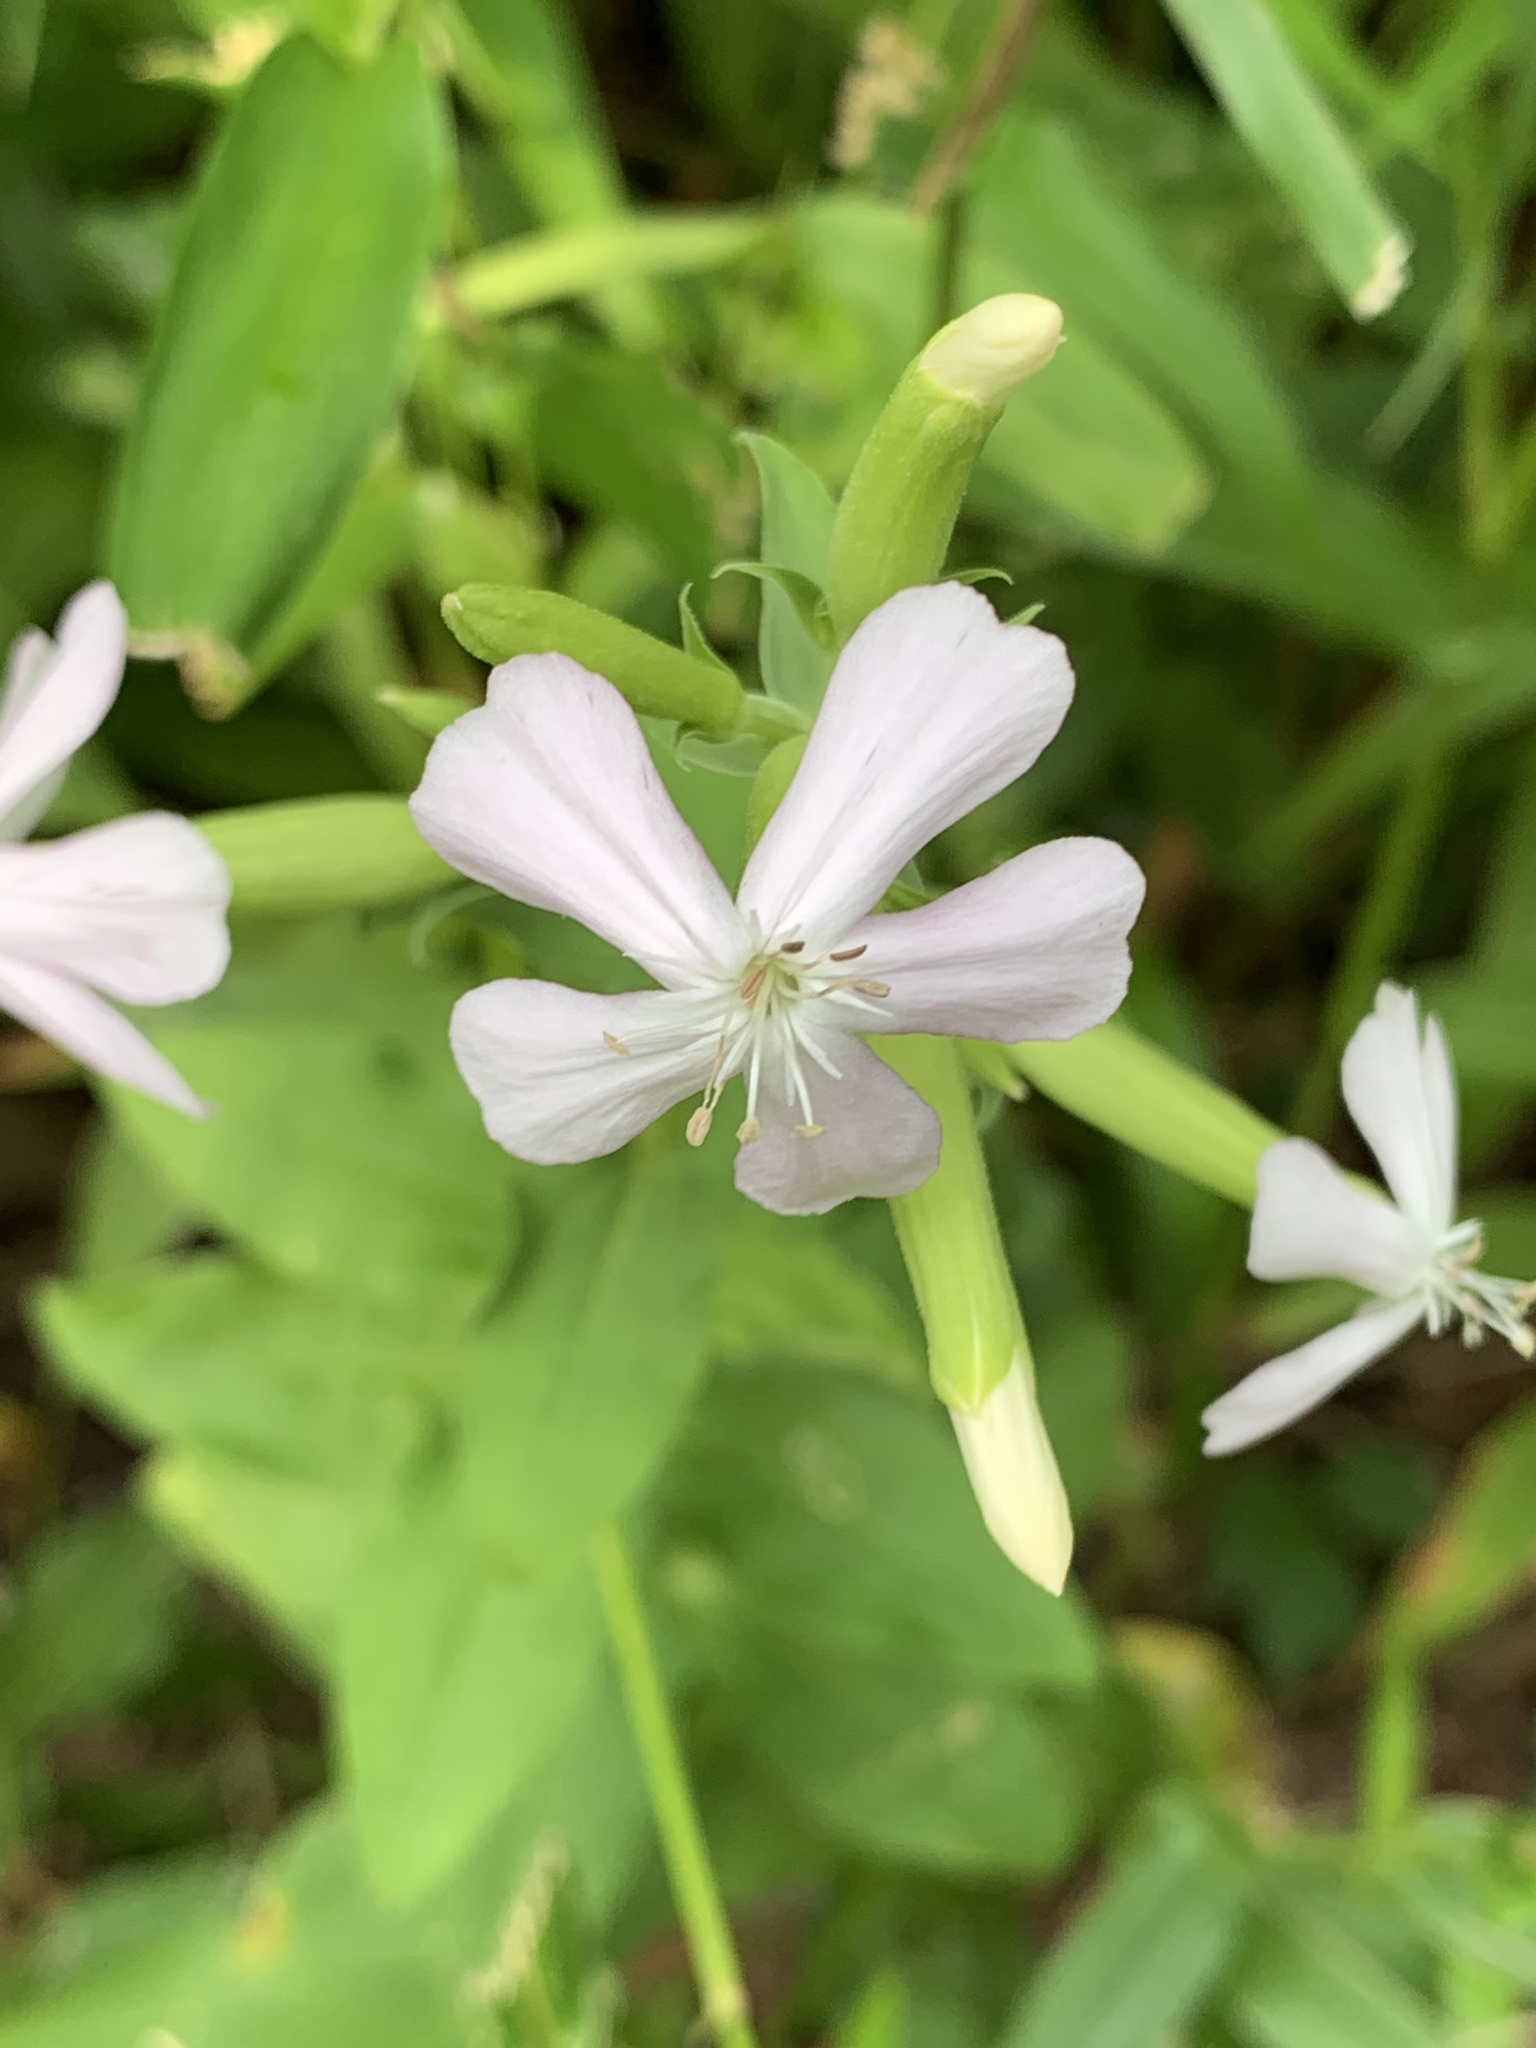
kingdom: Plantae
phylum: Tracheophyta
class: Magnoliopsida
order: Caryophyllales
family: Caryophyllaceae
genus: Saponaria
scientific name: Saponaria officinalis
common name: Soapwort
